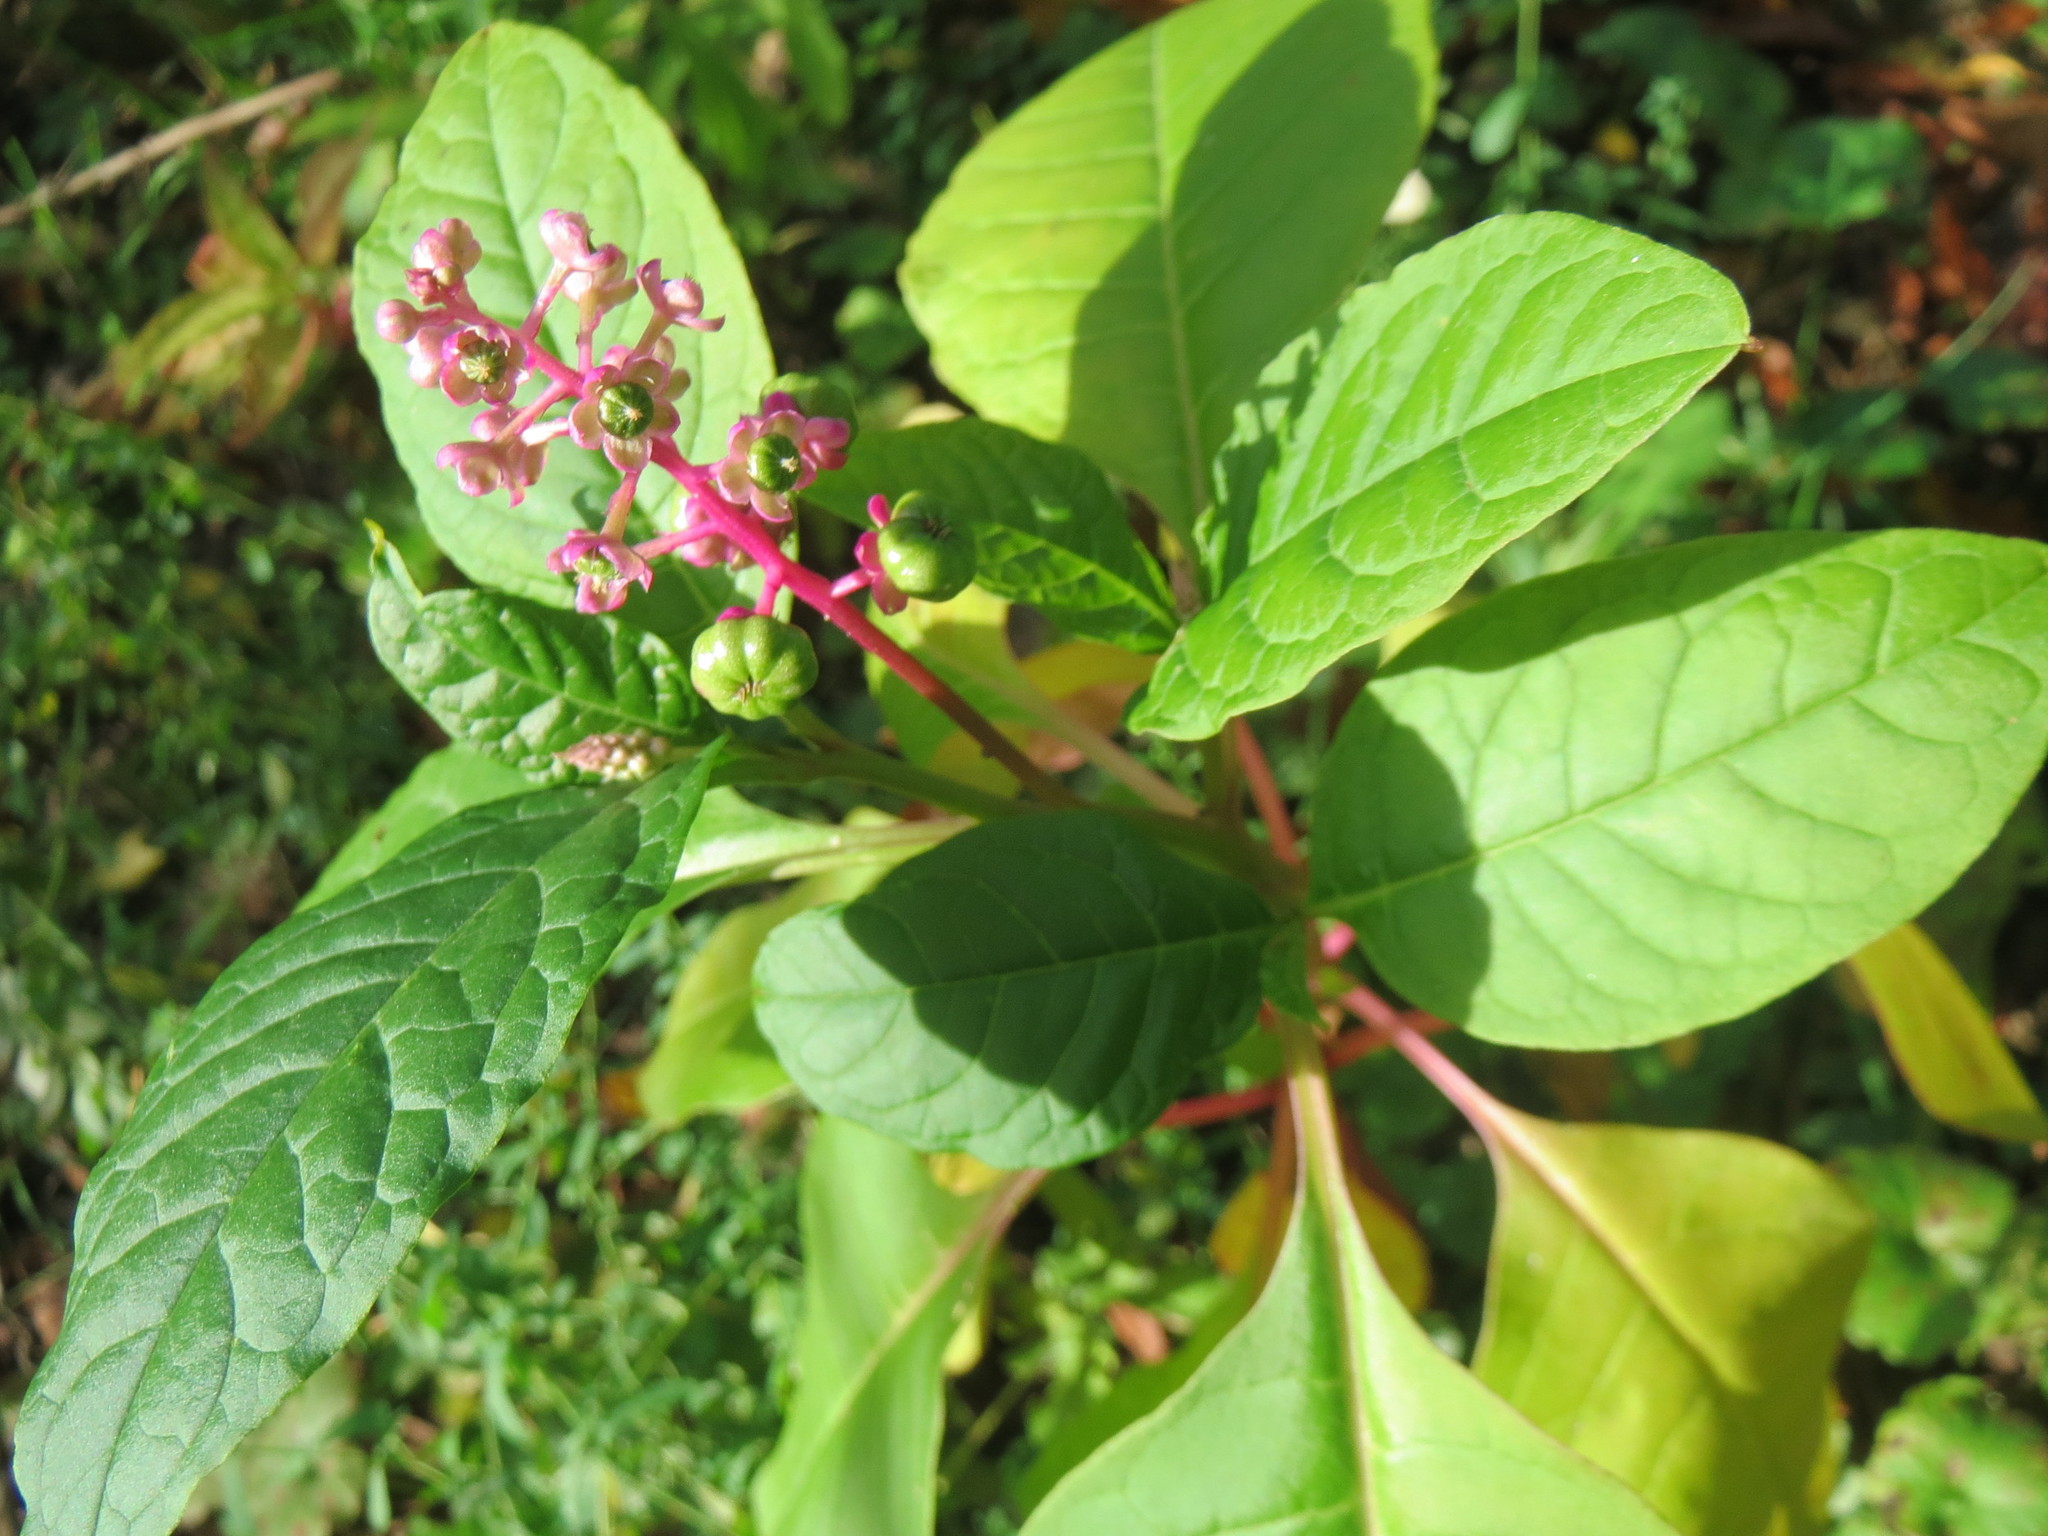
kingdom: Plantae
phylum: Tracheophyta
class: Magnoliopsida
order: Caryophyllales
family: Phytolaccaceae
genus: Phytolacca
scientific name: Phytolacca americana
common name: American pokeweed
